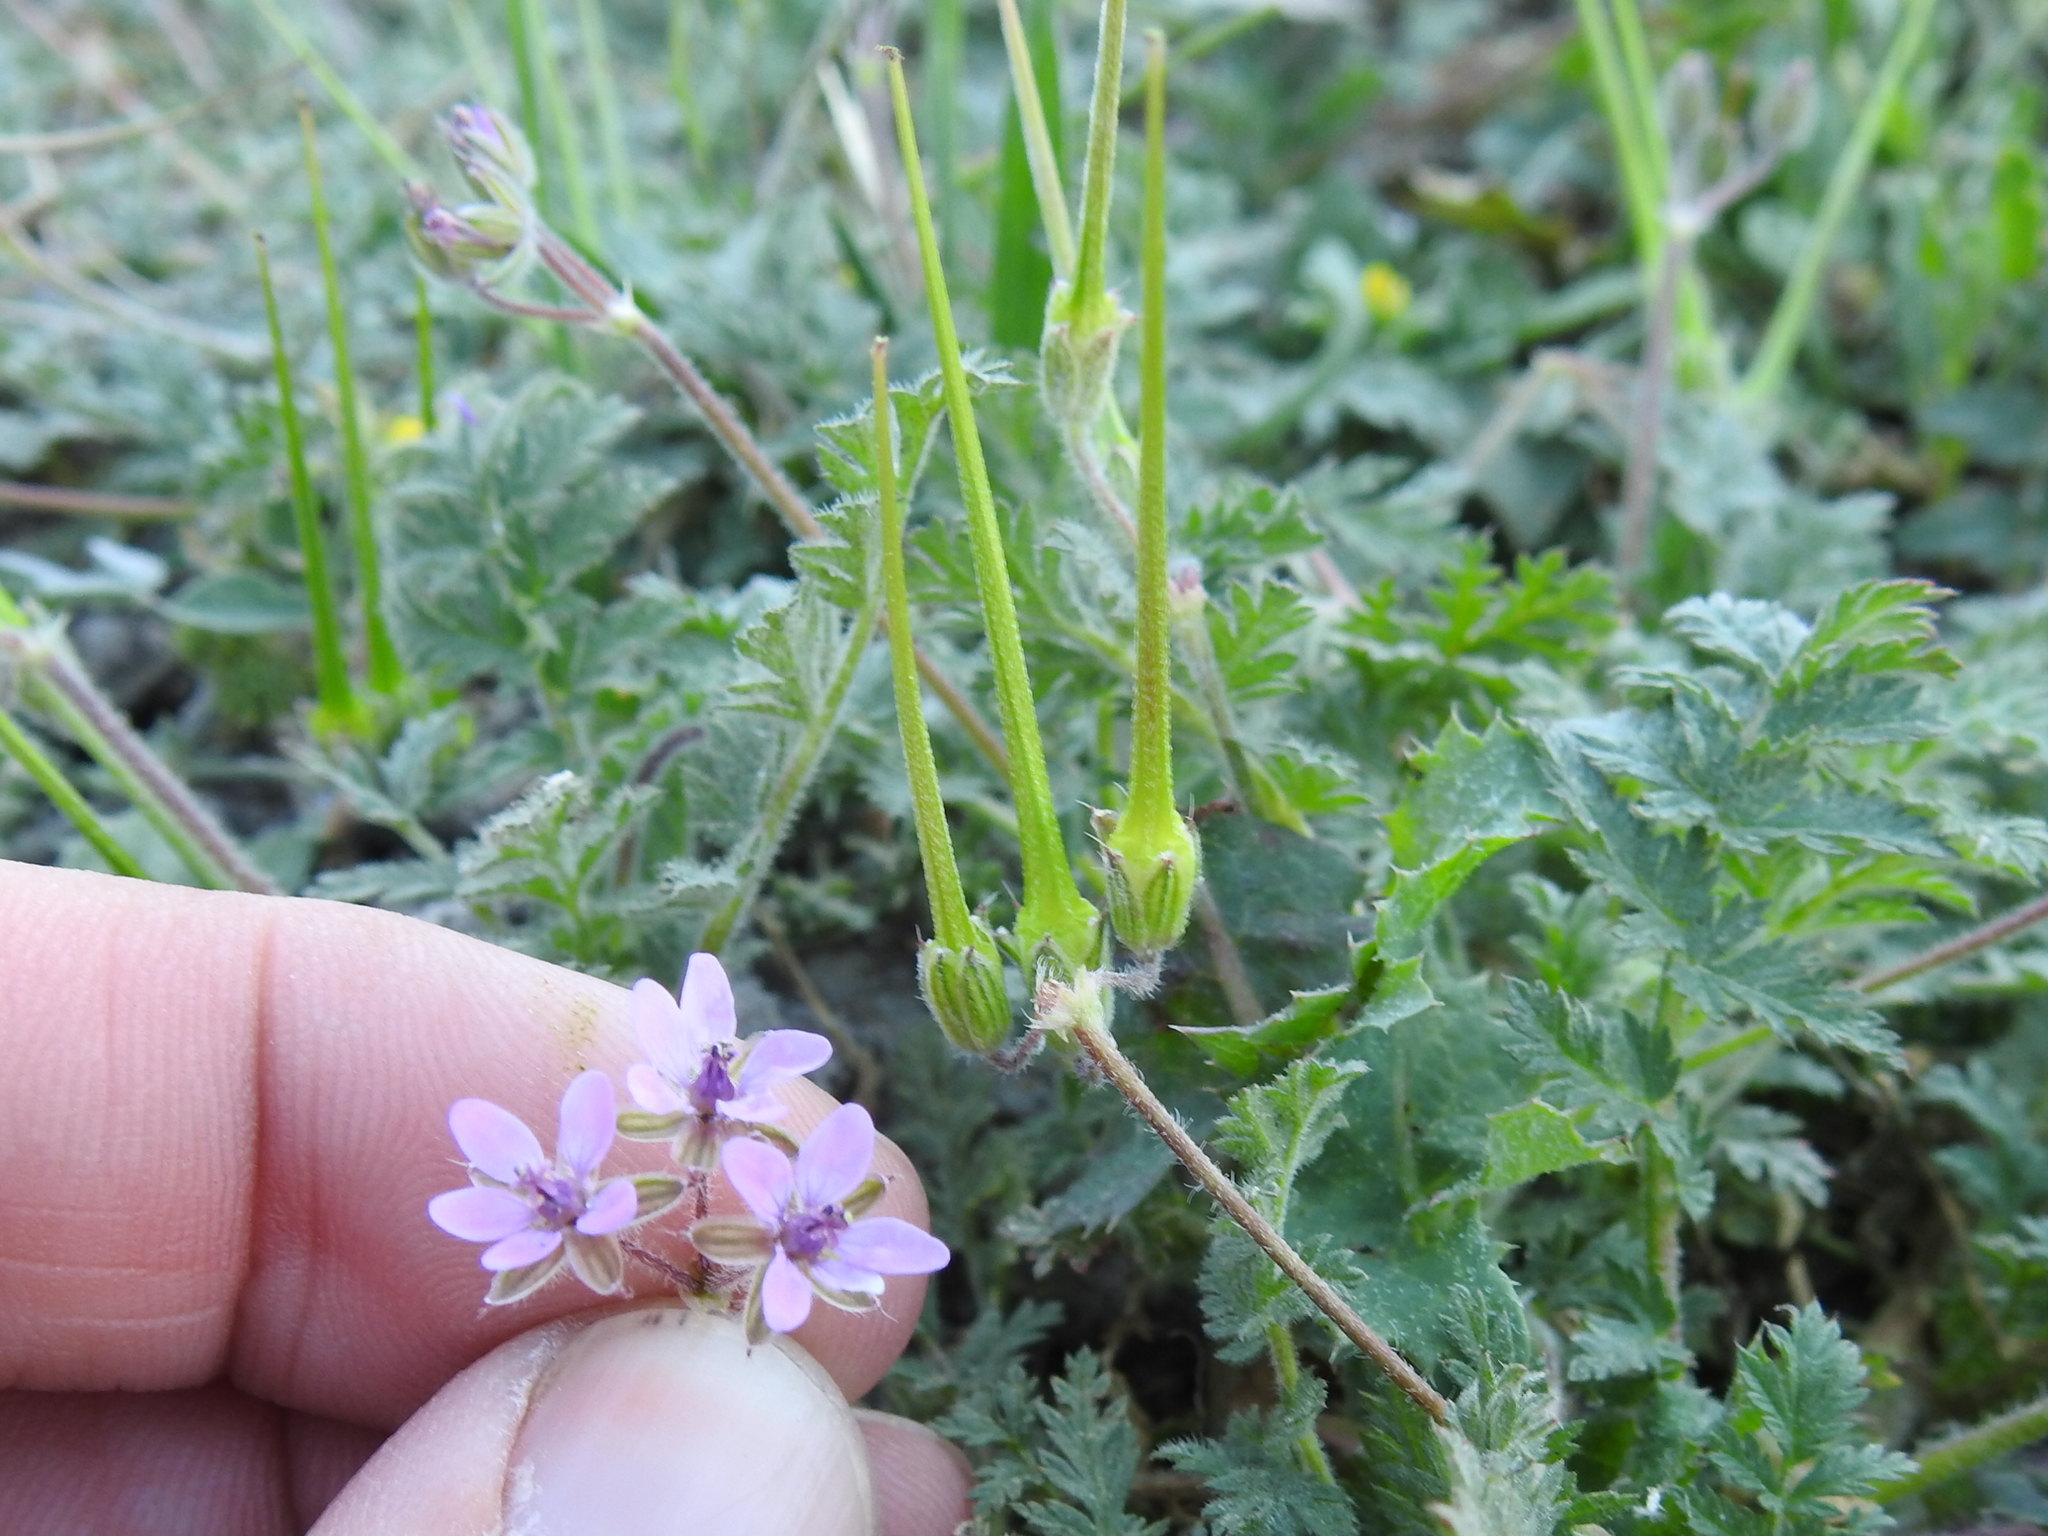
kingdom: Plantae
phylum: Tracheophyta
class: Magnoliopsida
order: Geraniales
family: Geraniaceae
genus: Erodium
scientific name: Erodium cicutarium
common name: Common stork's-bill
